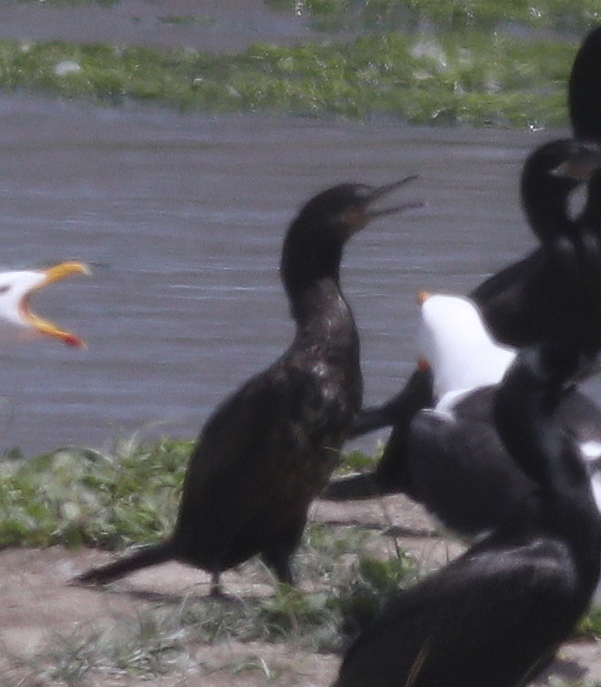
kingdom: Animalia
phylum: Chordata
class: Aves
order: Suliformes
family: Phalacrocoracidae
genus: Phalacrocorax
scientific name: Phalacrocorax brasilianus
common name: Neotropic cormorant
